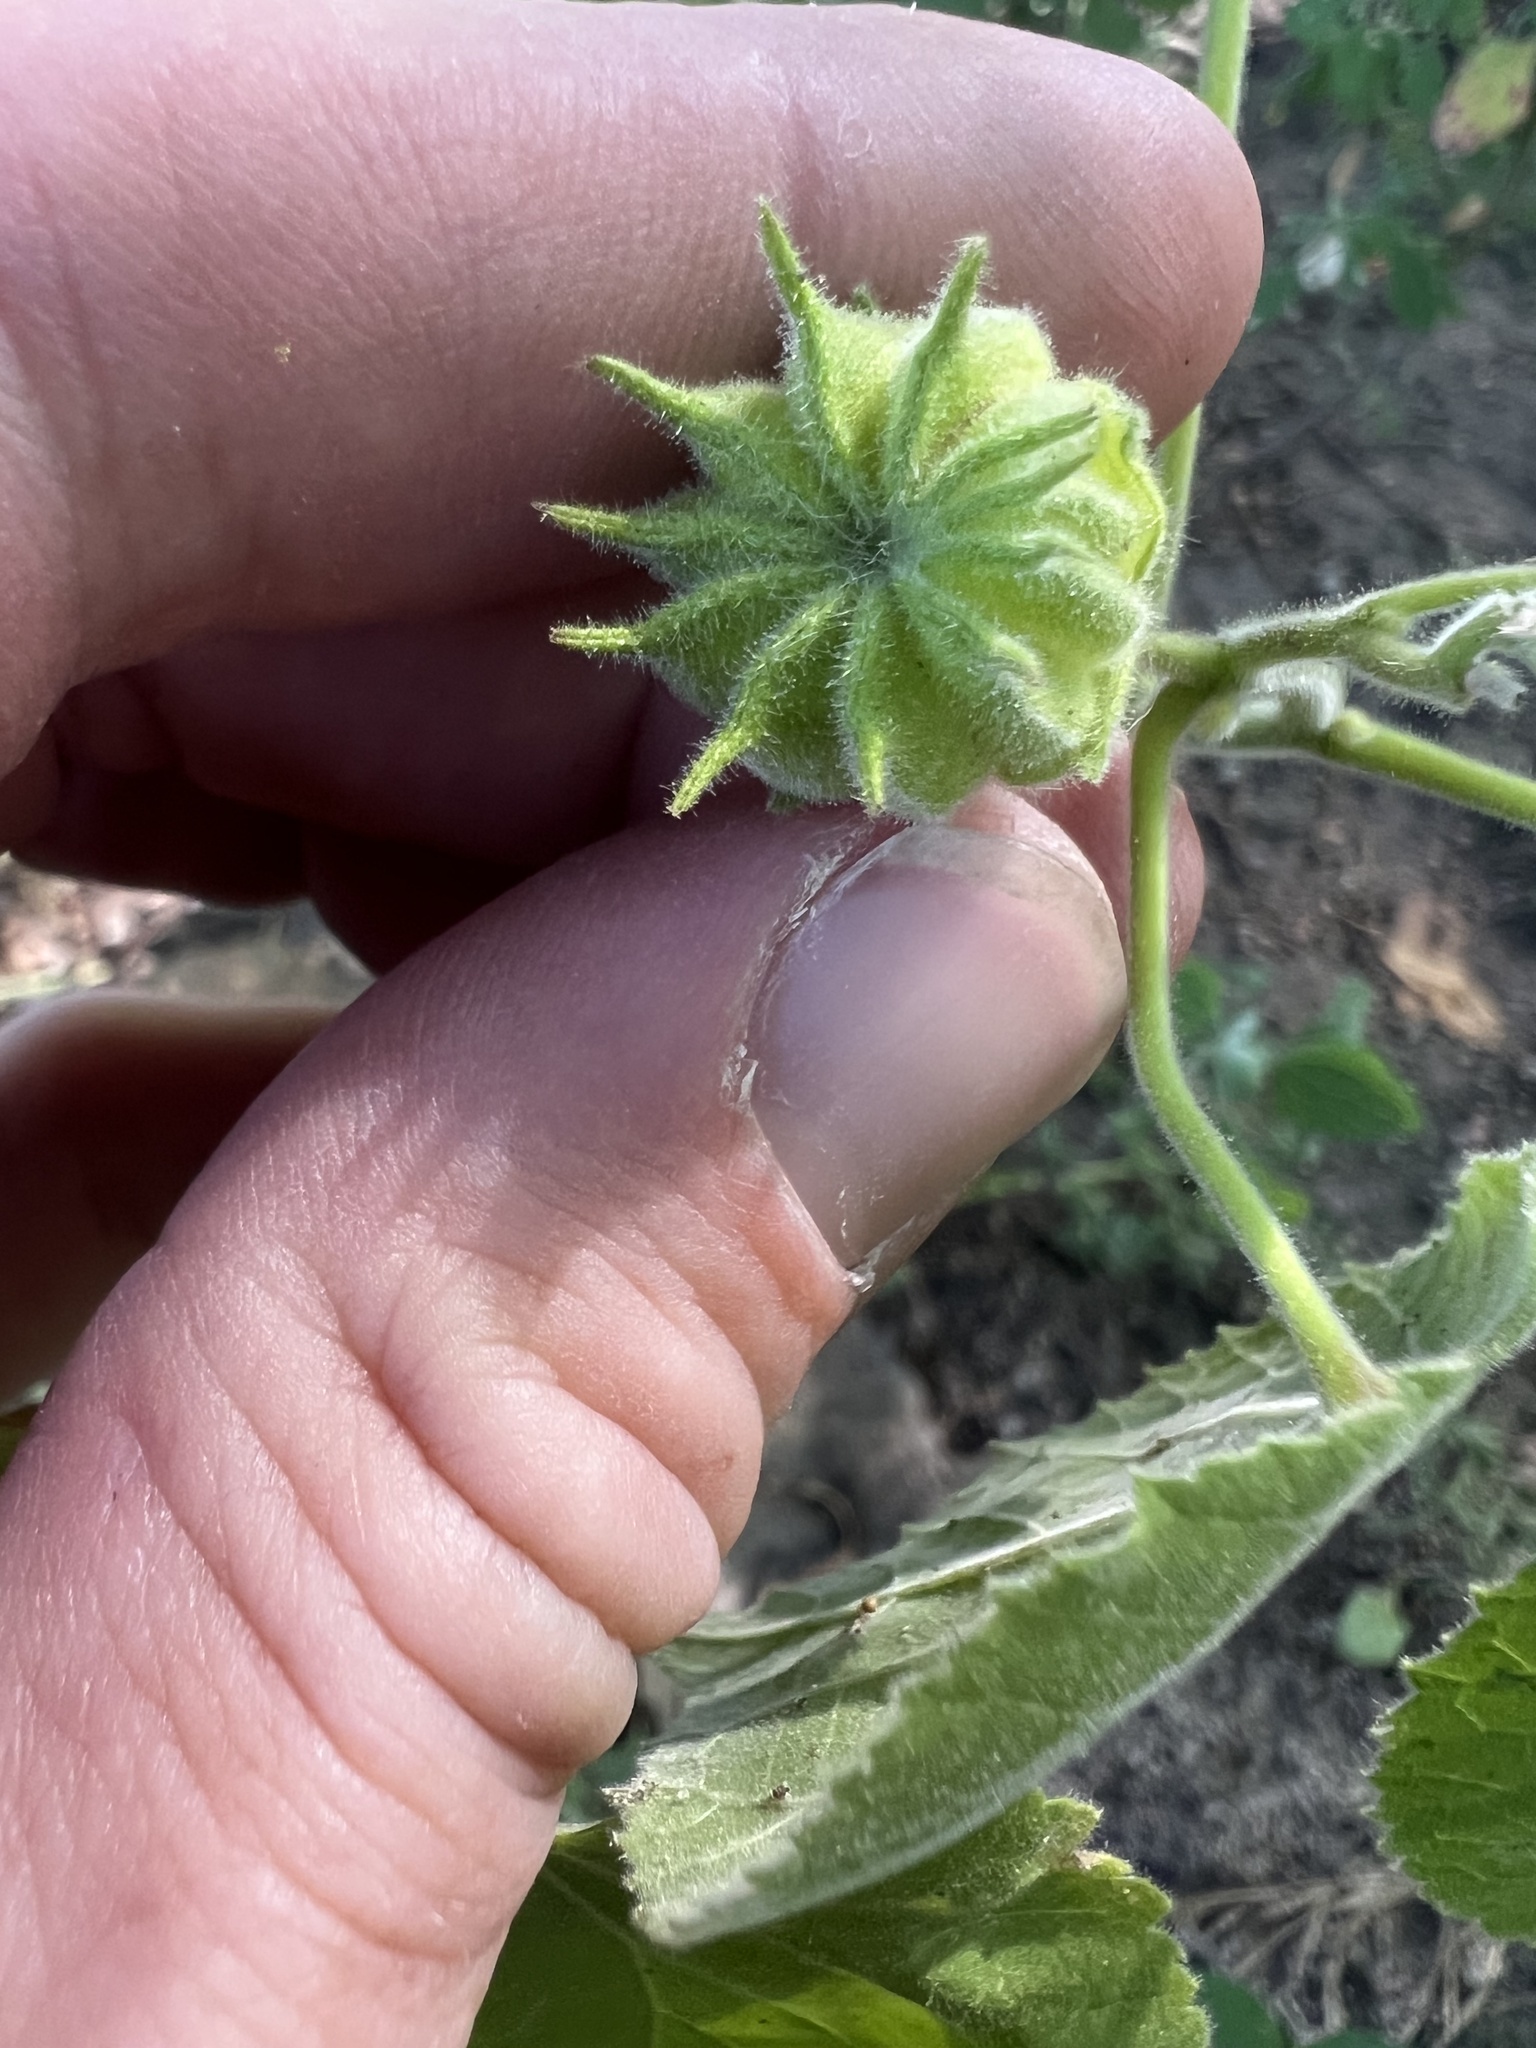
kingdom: Plantae
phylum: Tracheophyta
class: Magnoliopsida
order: Malvales
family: Malvaceae
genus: Abutilon
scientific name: Abutilon theophrasti
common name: Velvetleaf
